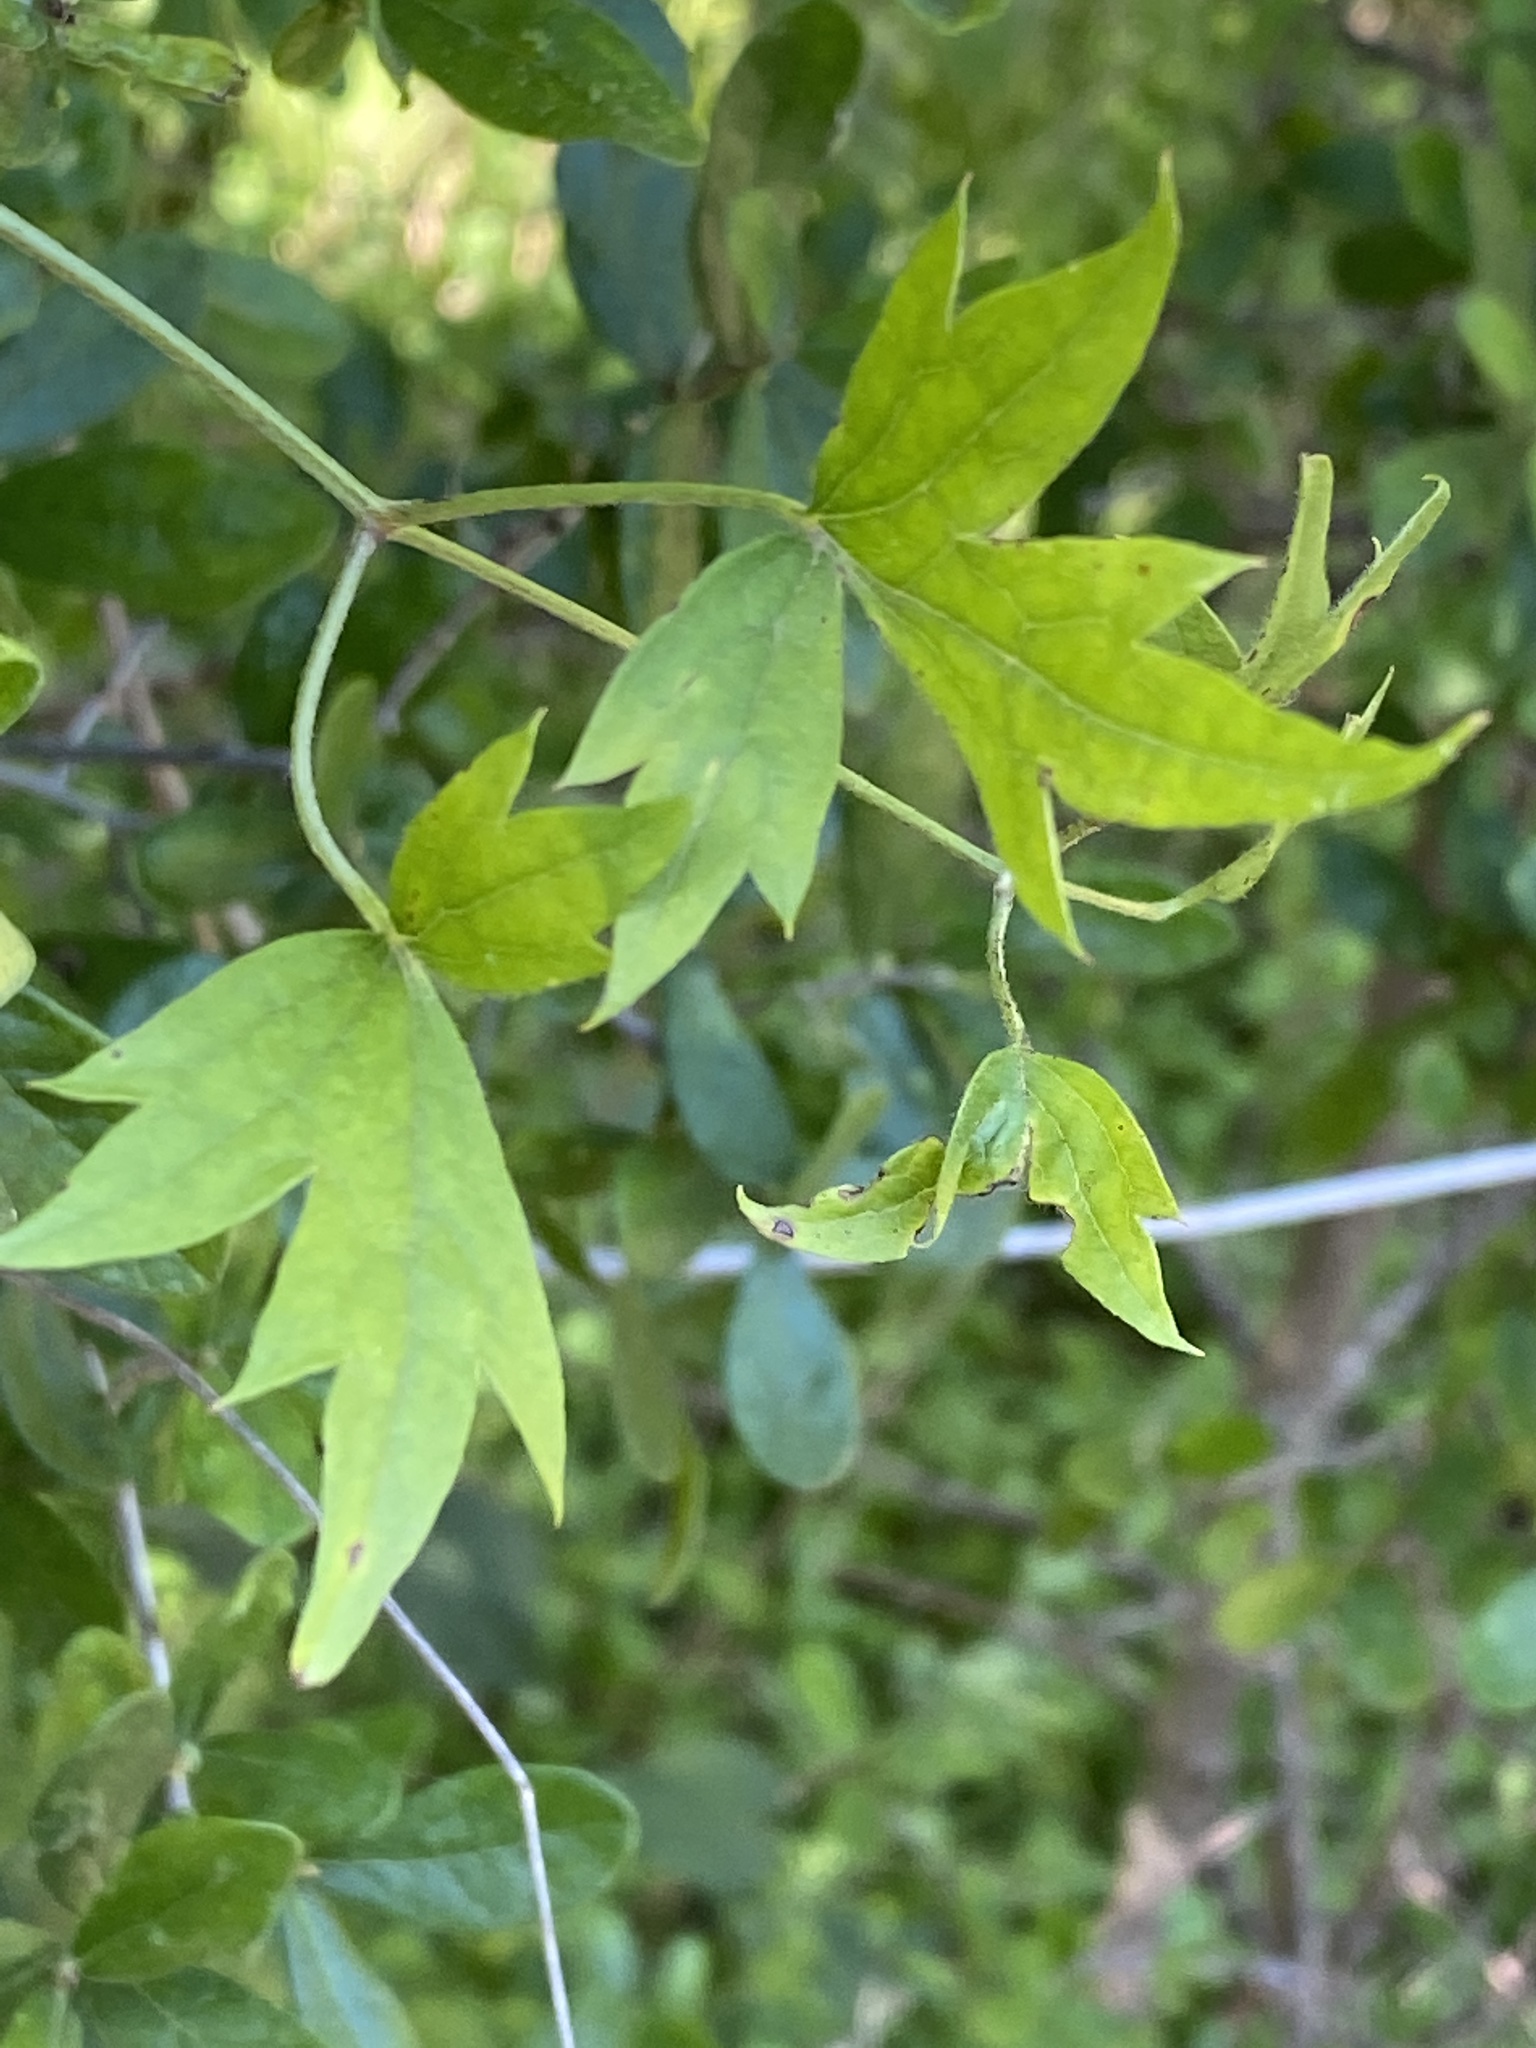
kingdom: Plantae
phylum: Tracheophyta
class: Magnoliopsida
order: Ranunculales
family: Ranunculaceae
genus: Clematis
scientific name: Clematis drummondii
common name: Texas virgin's bower
